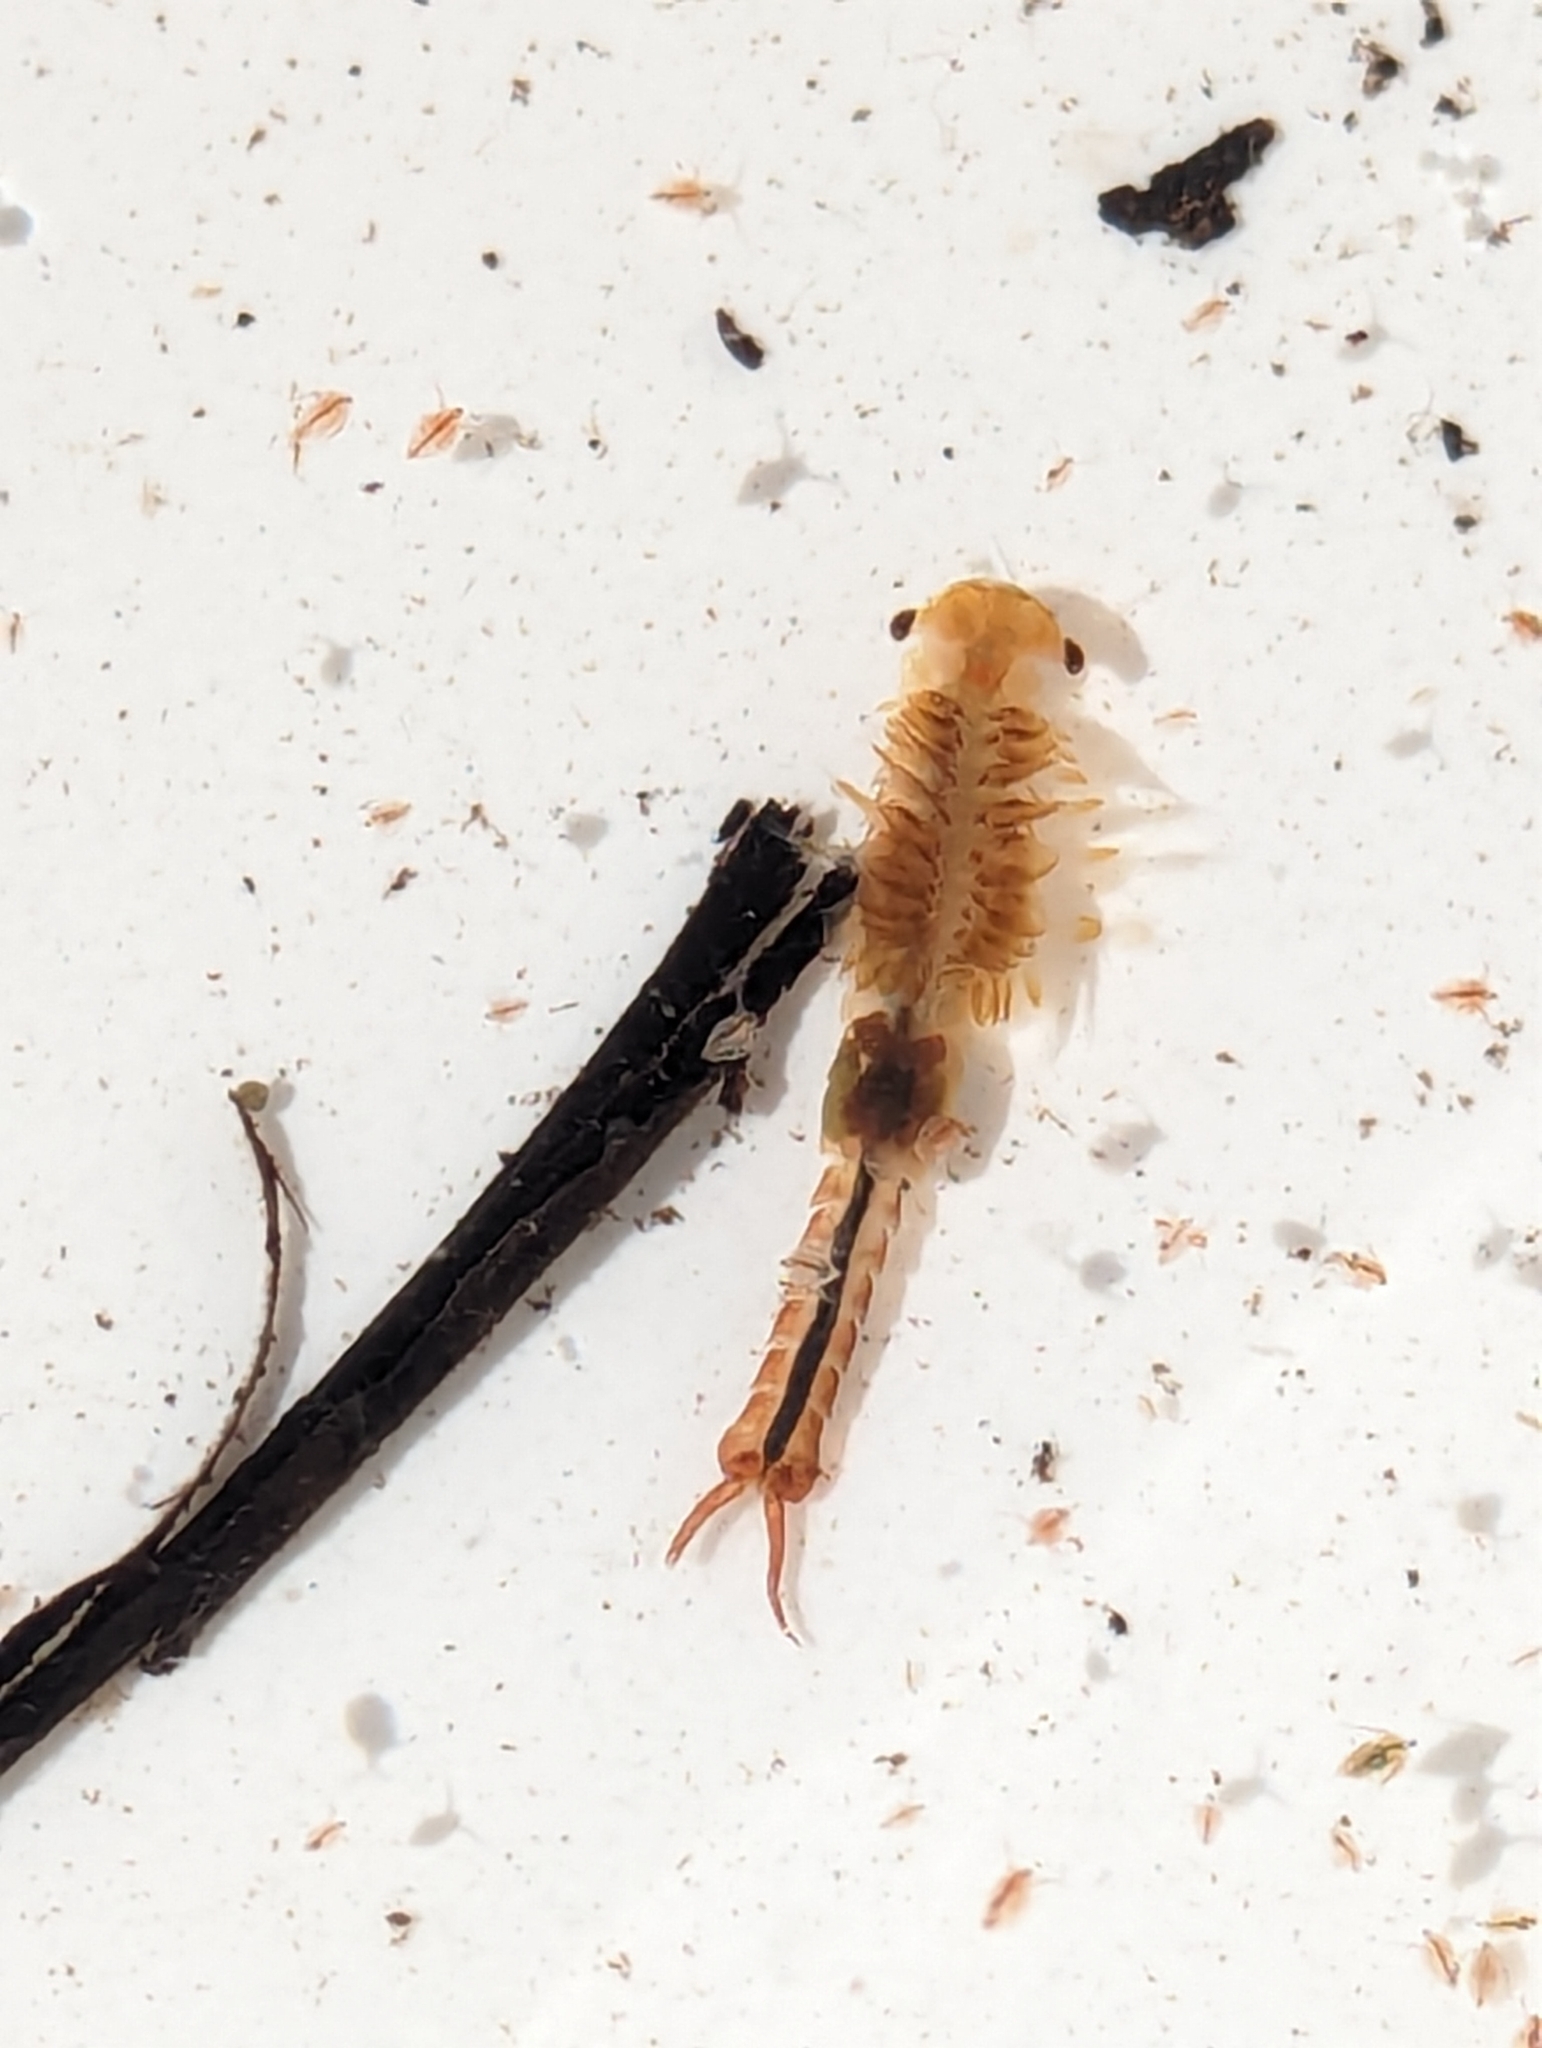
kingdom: Animalia
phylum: Arthropoda
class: Branchiopoda
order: Anostraca
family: Chirocephalidae
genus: Eubranchipus
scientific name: Eubranchipus serratus
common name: Ethologist fairy shrimp
